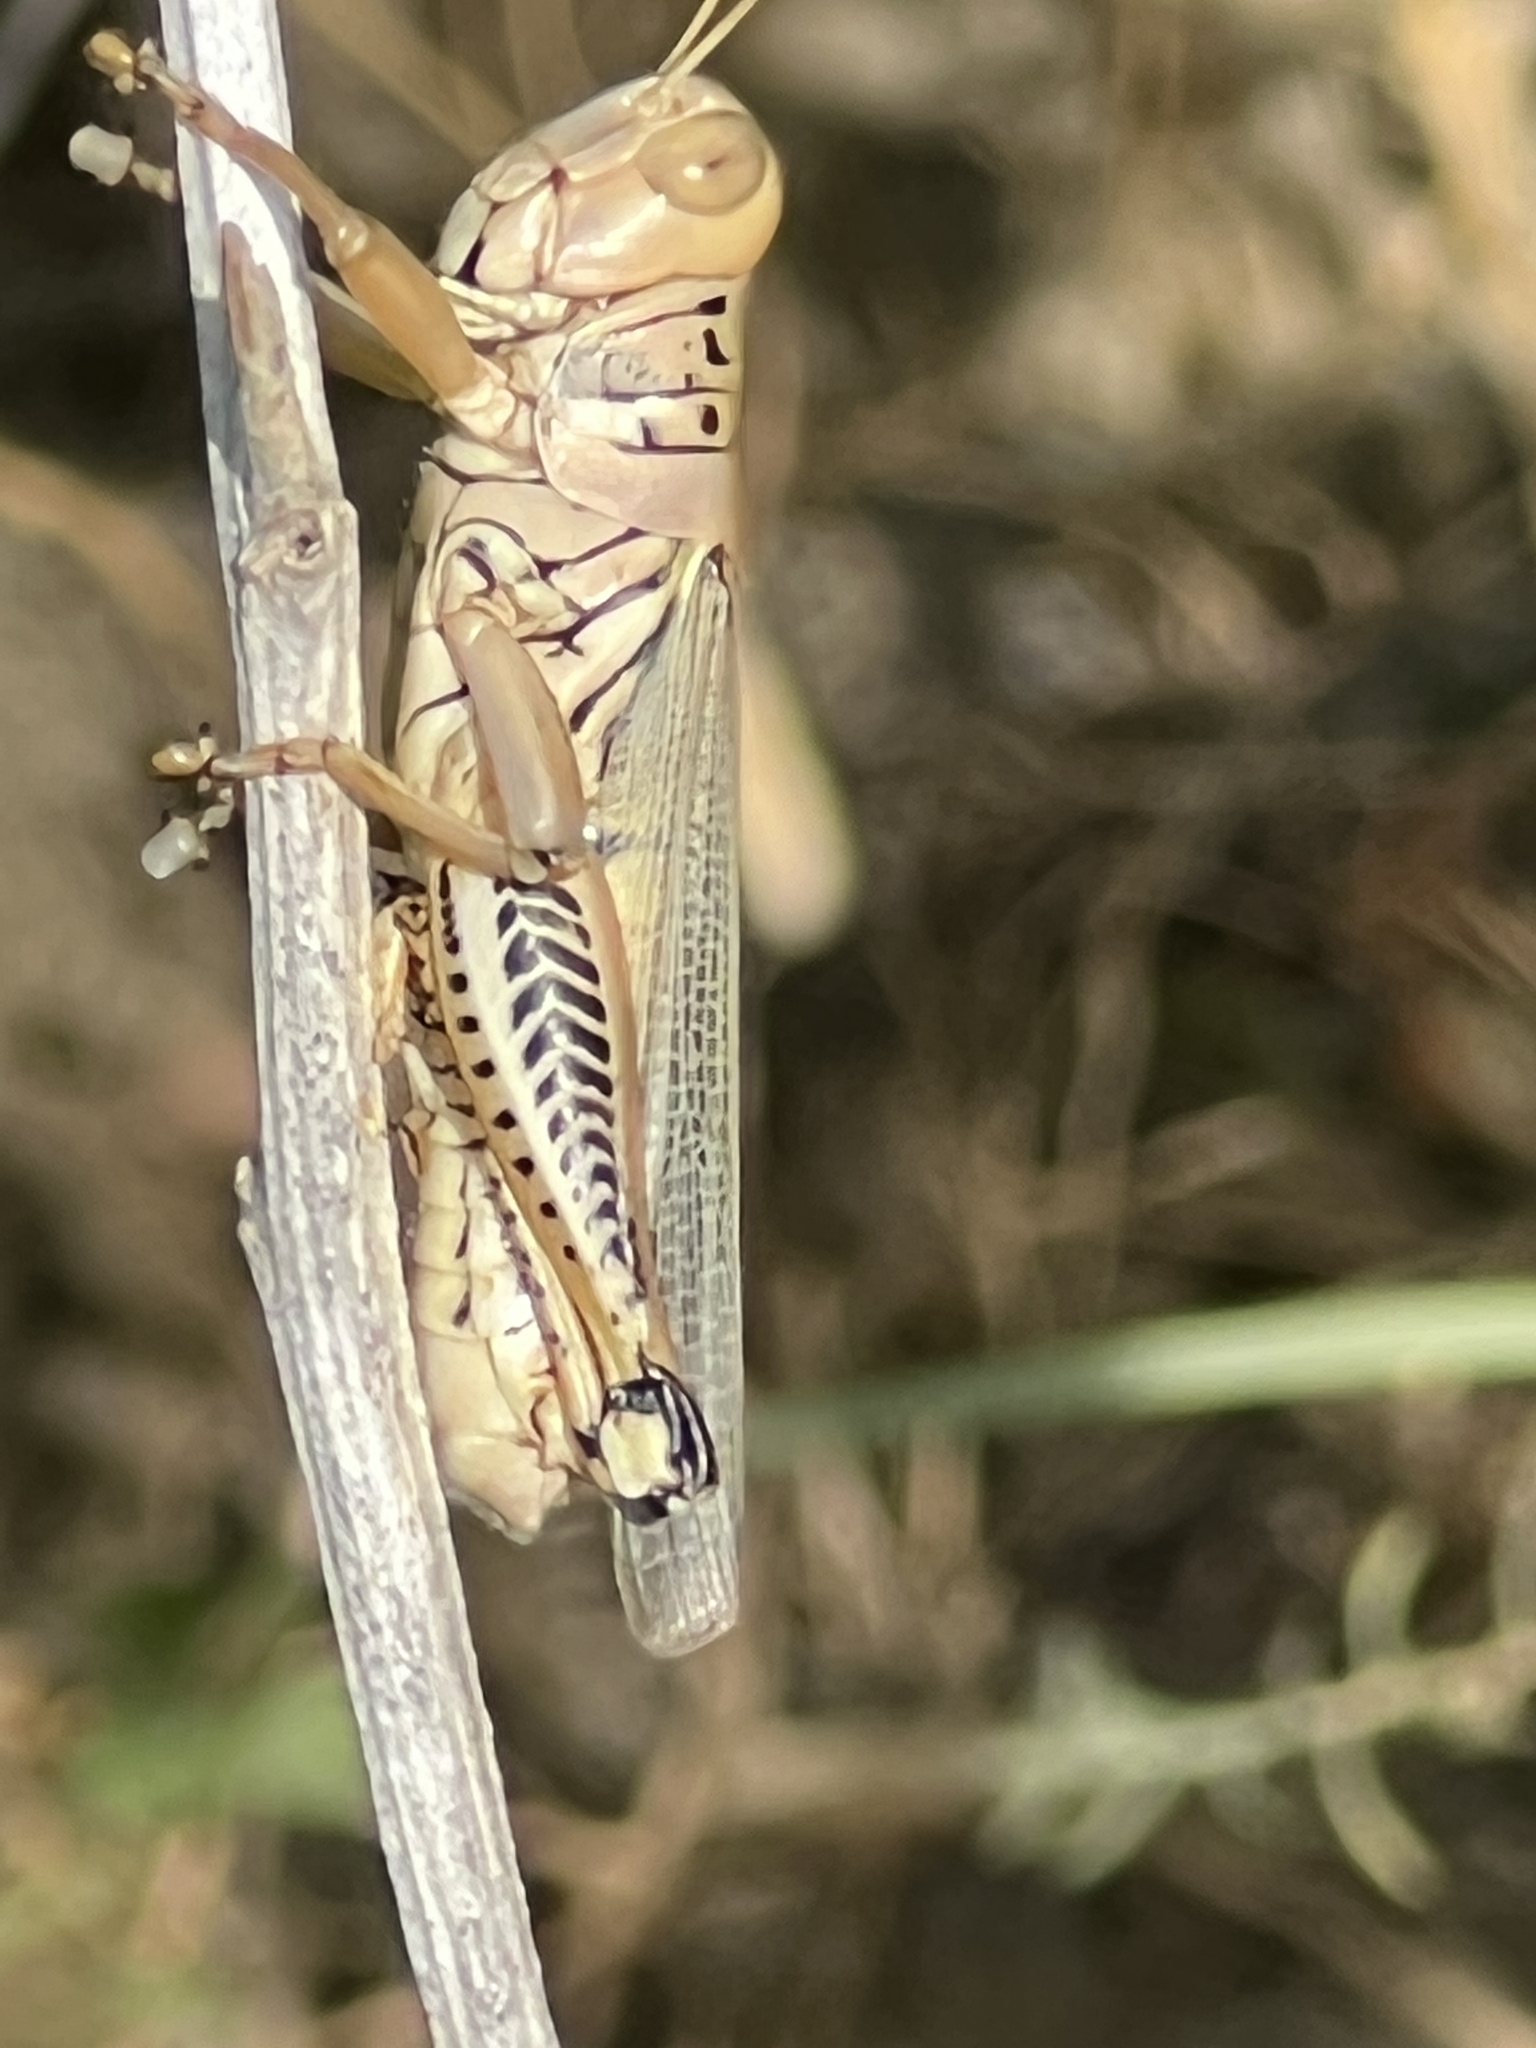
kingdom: Animalia
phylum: Arthropoda
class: Insecta
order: Orthoptera
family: Acrididae
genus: Melanoplus
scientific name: Melanoplus differentialis
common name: Differential grasshopper
